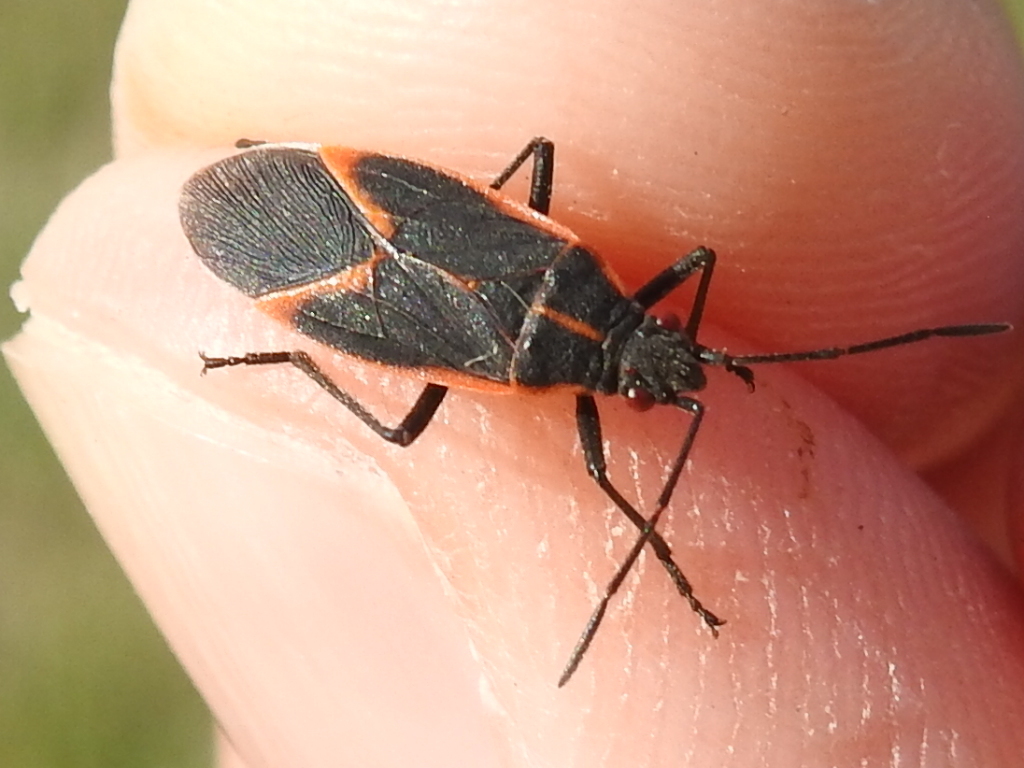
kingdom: Animalia
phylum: Arthropoda
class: Insecta
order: Hemiptera
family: Rhopalidae
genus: Boisea
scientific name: Boisea trivittata
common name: Boxelder bug
